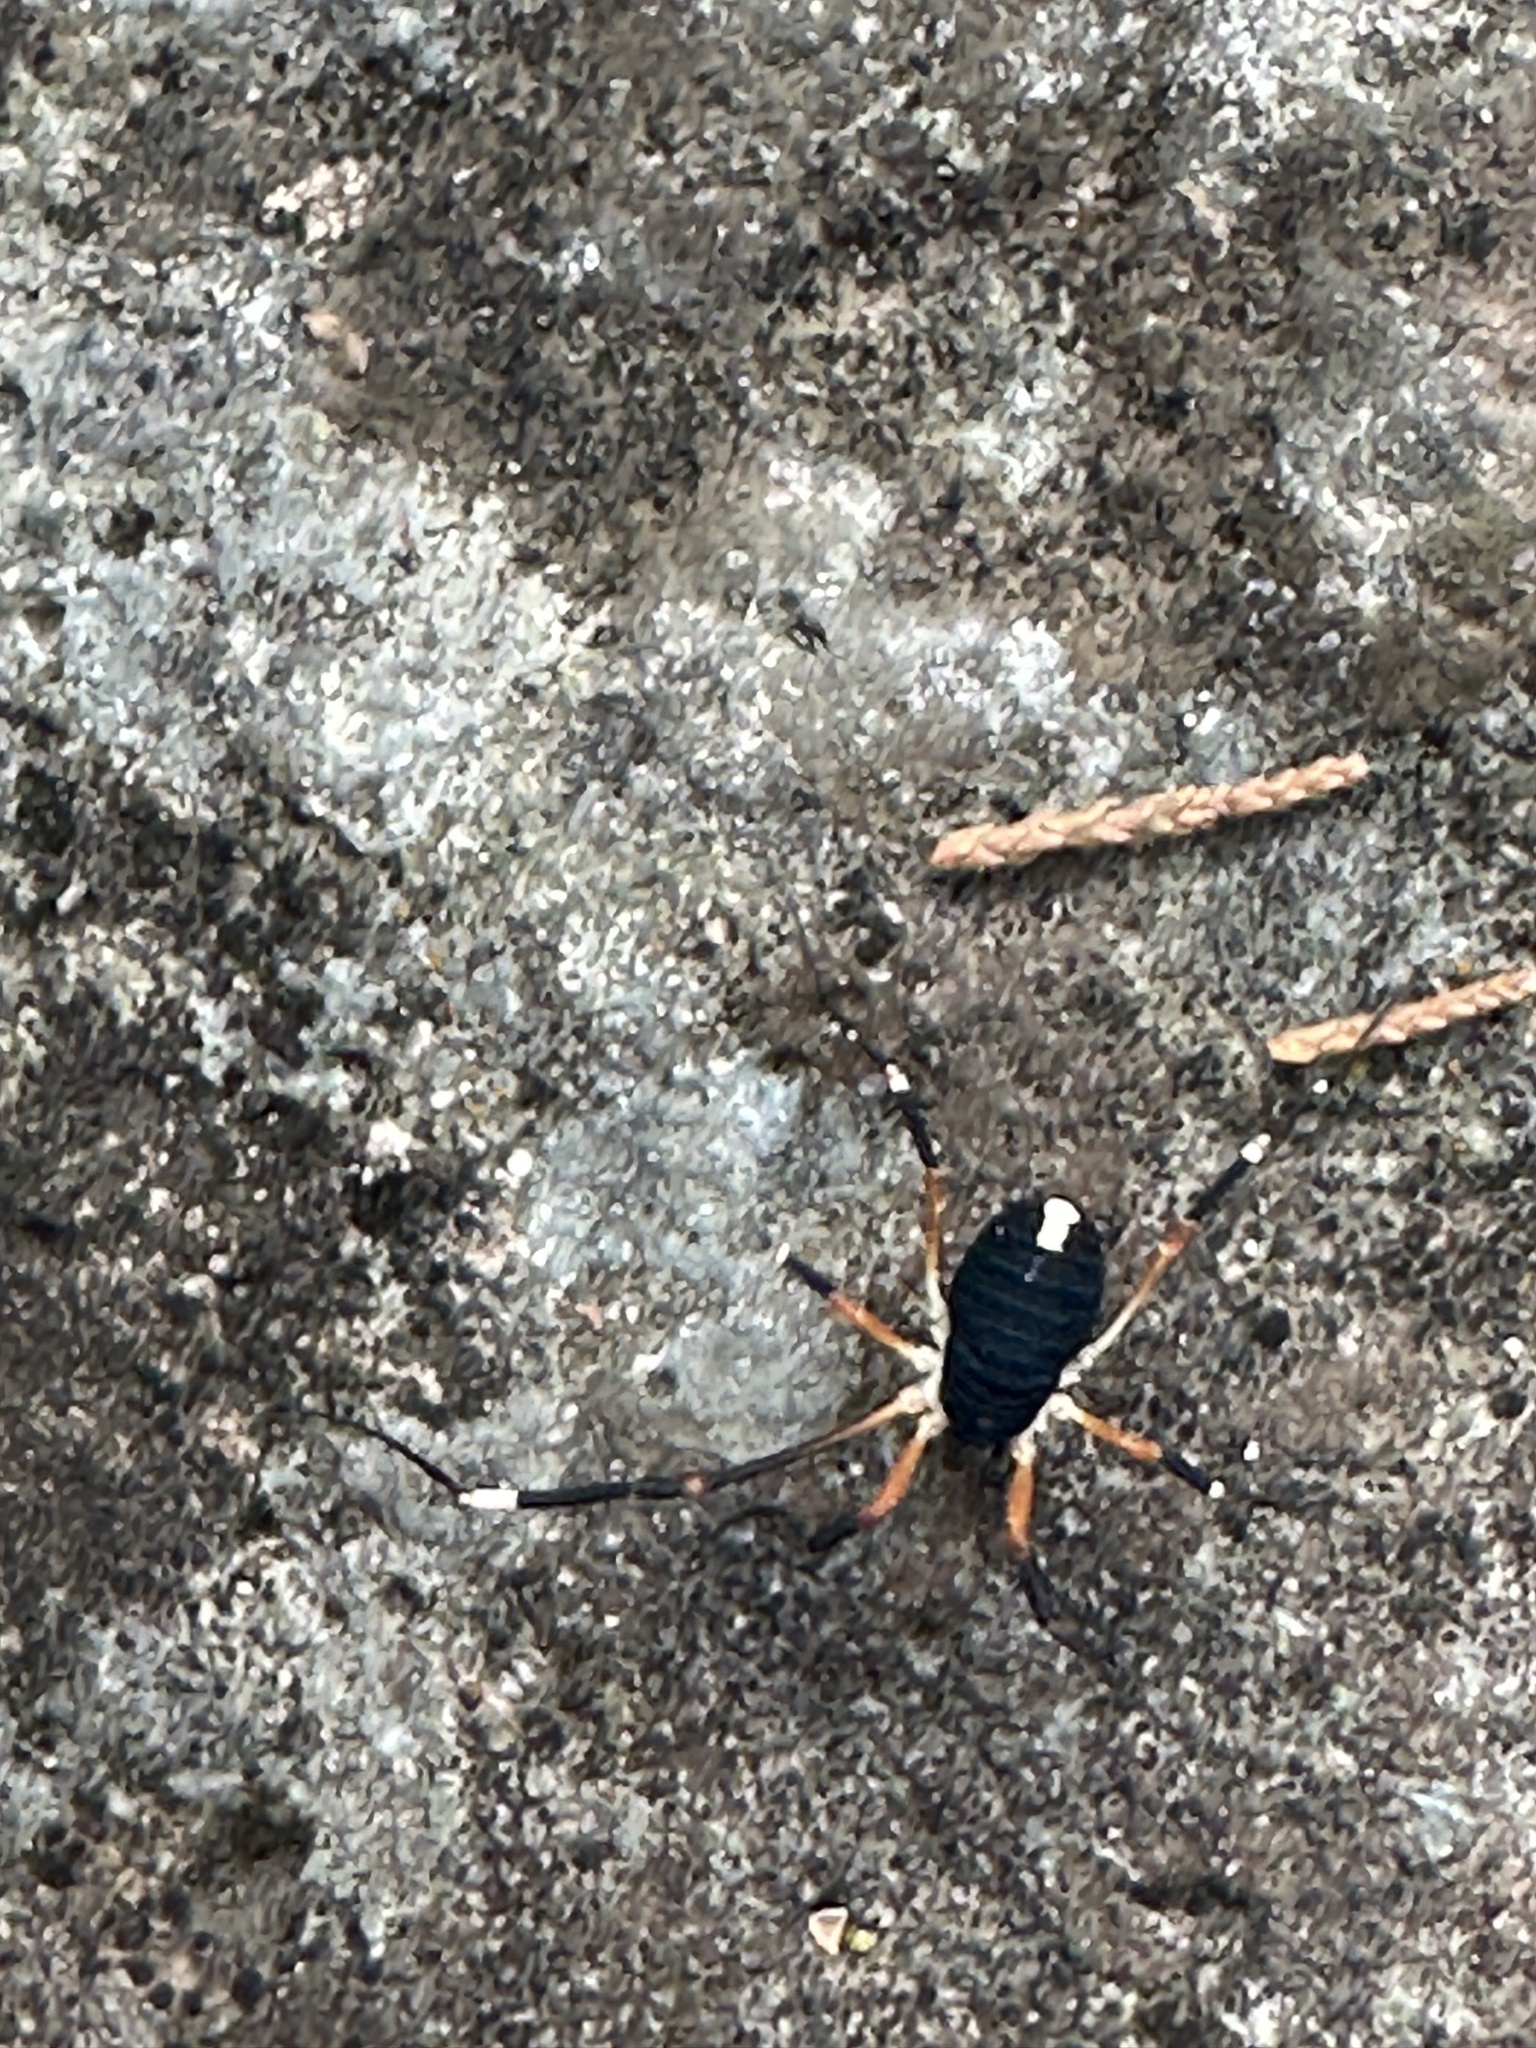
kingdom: Animalia
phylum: Arthropoda
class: Arachnida
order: Opiliones
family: Globipedidae
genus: Dalquestia
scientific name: Dalquestia formosa
